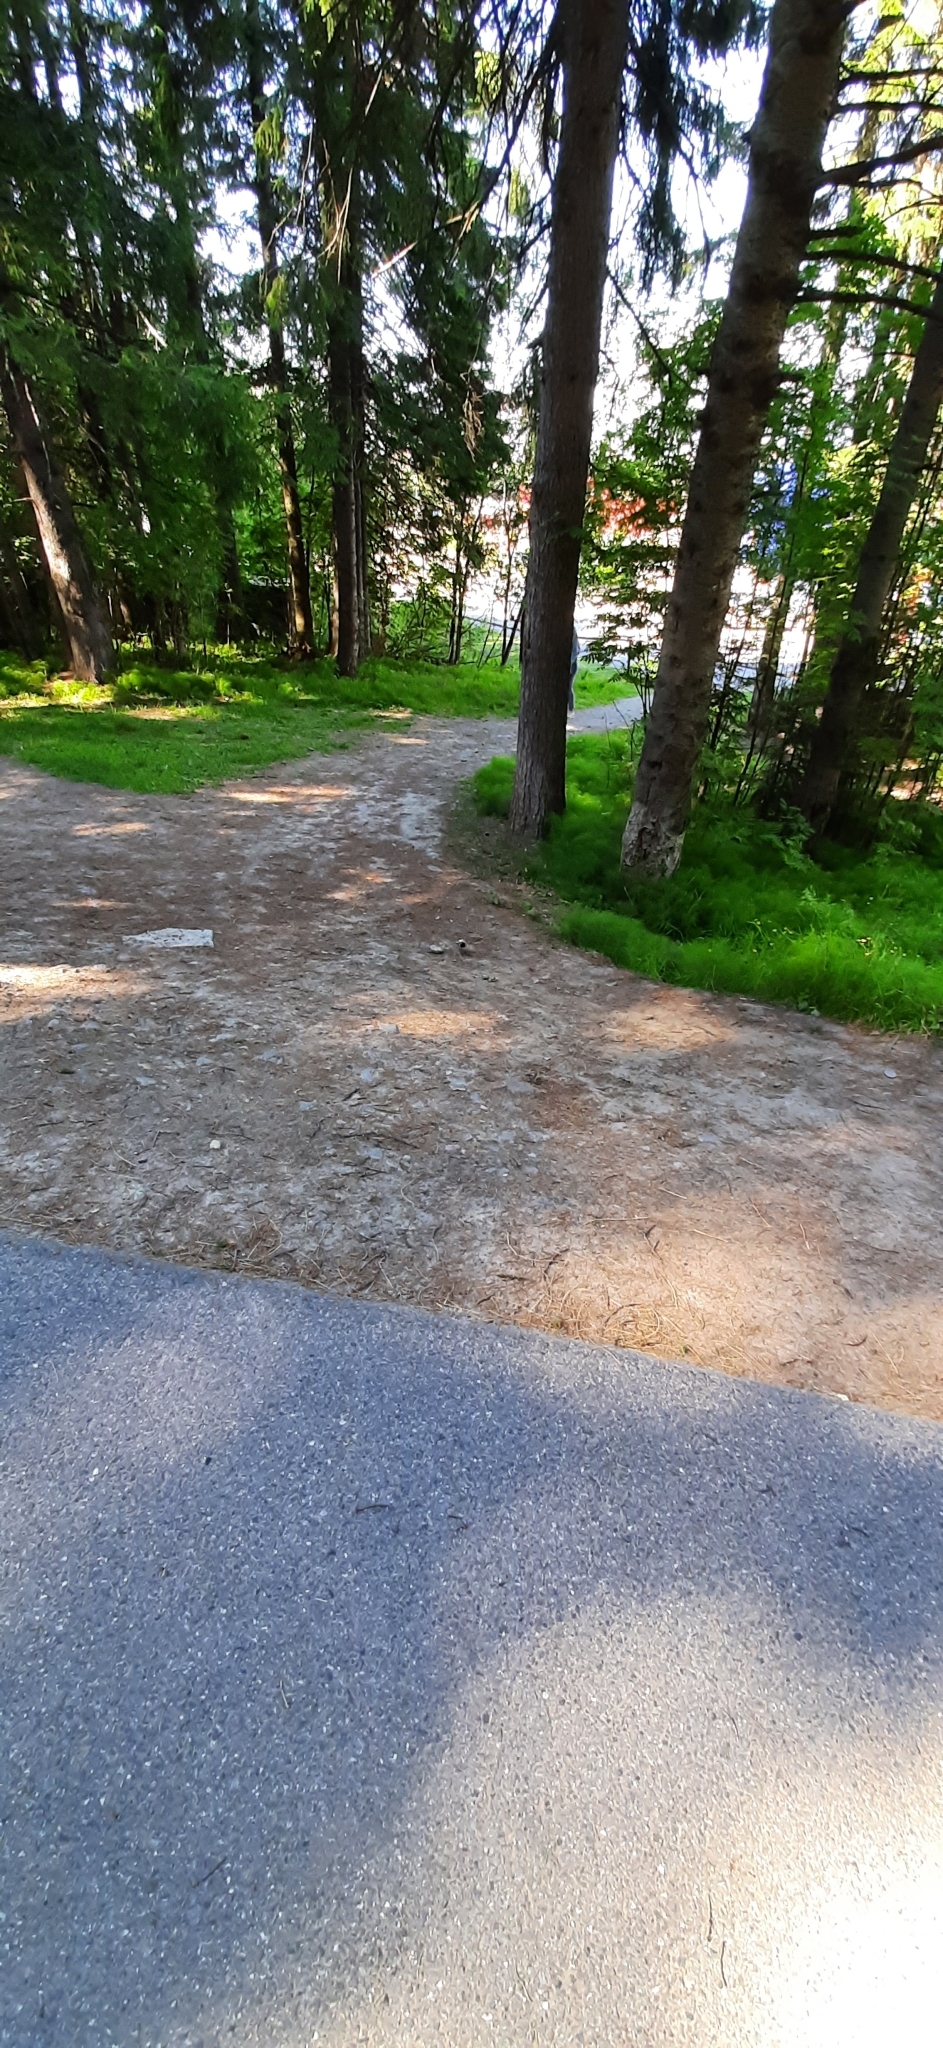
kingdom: Animalia
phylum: Chordata
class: Aves
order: Passeriformes
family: Motacillidae
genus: Motacilla
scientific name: Motacilla alba
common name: White wagtail
